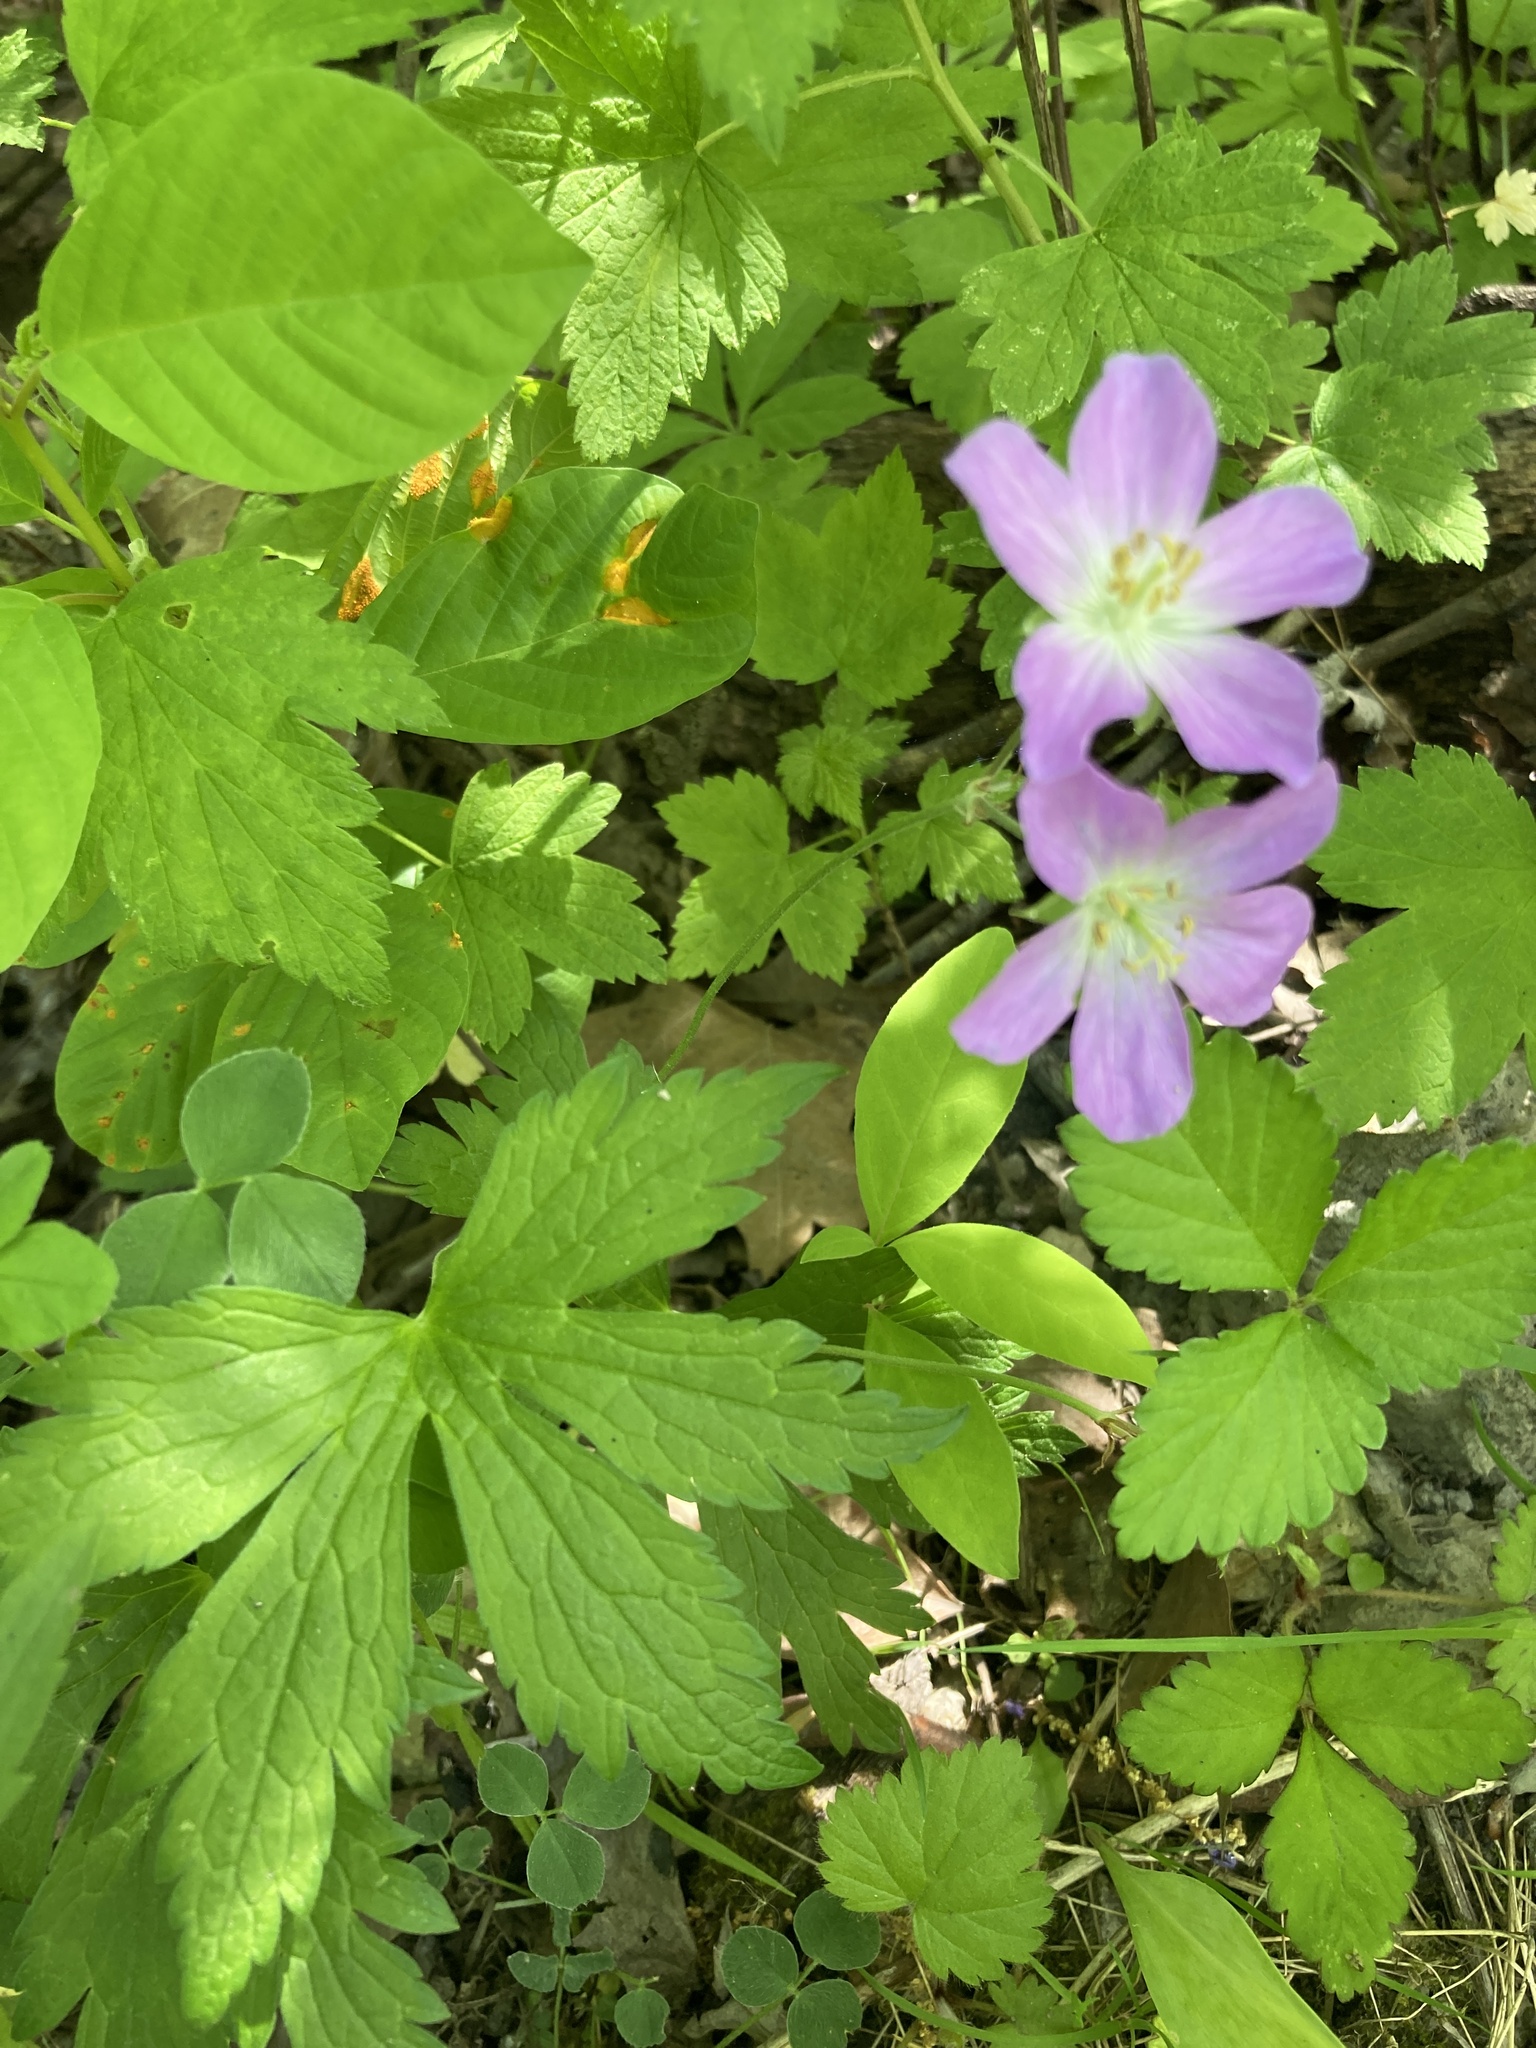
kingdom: Plantae
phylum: Tracheophyta
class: Magnoliopsida
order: Geraniales
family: Geraniaceae
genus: Geranium
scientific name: Geranium maculatum
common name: Spotted geranium
